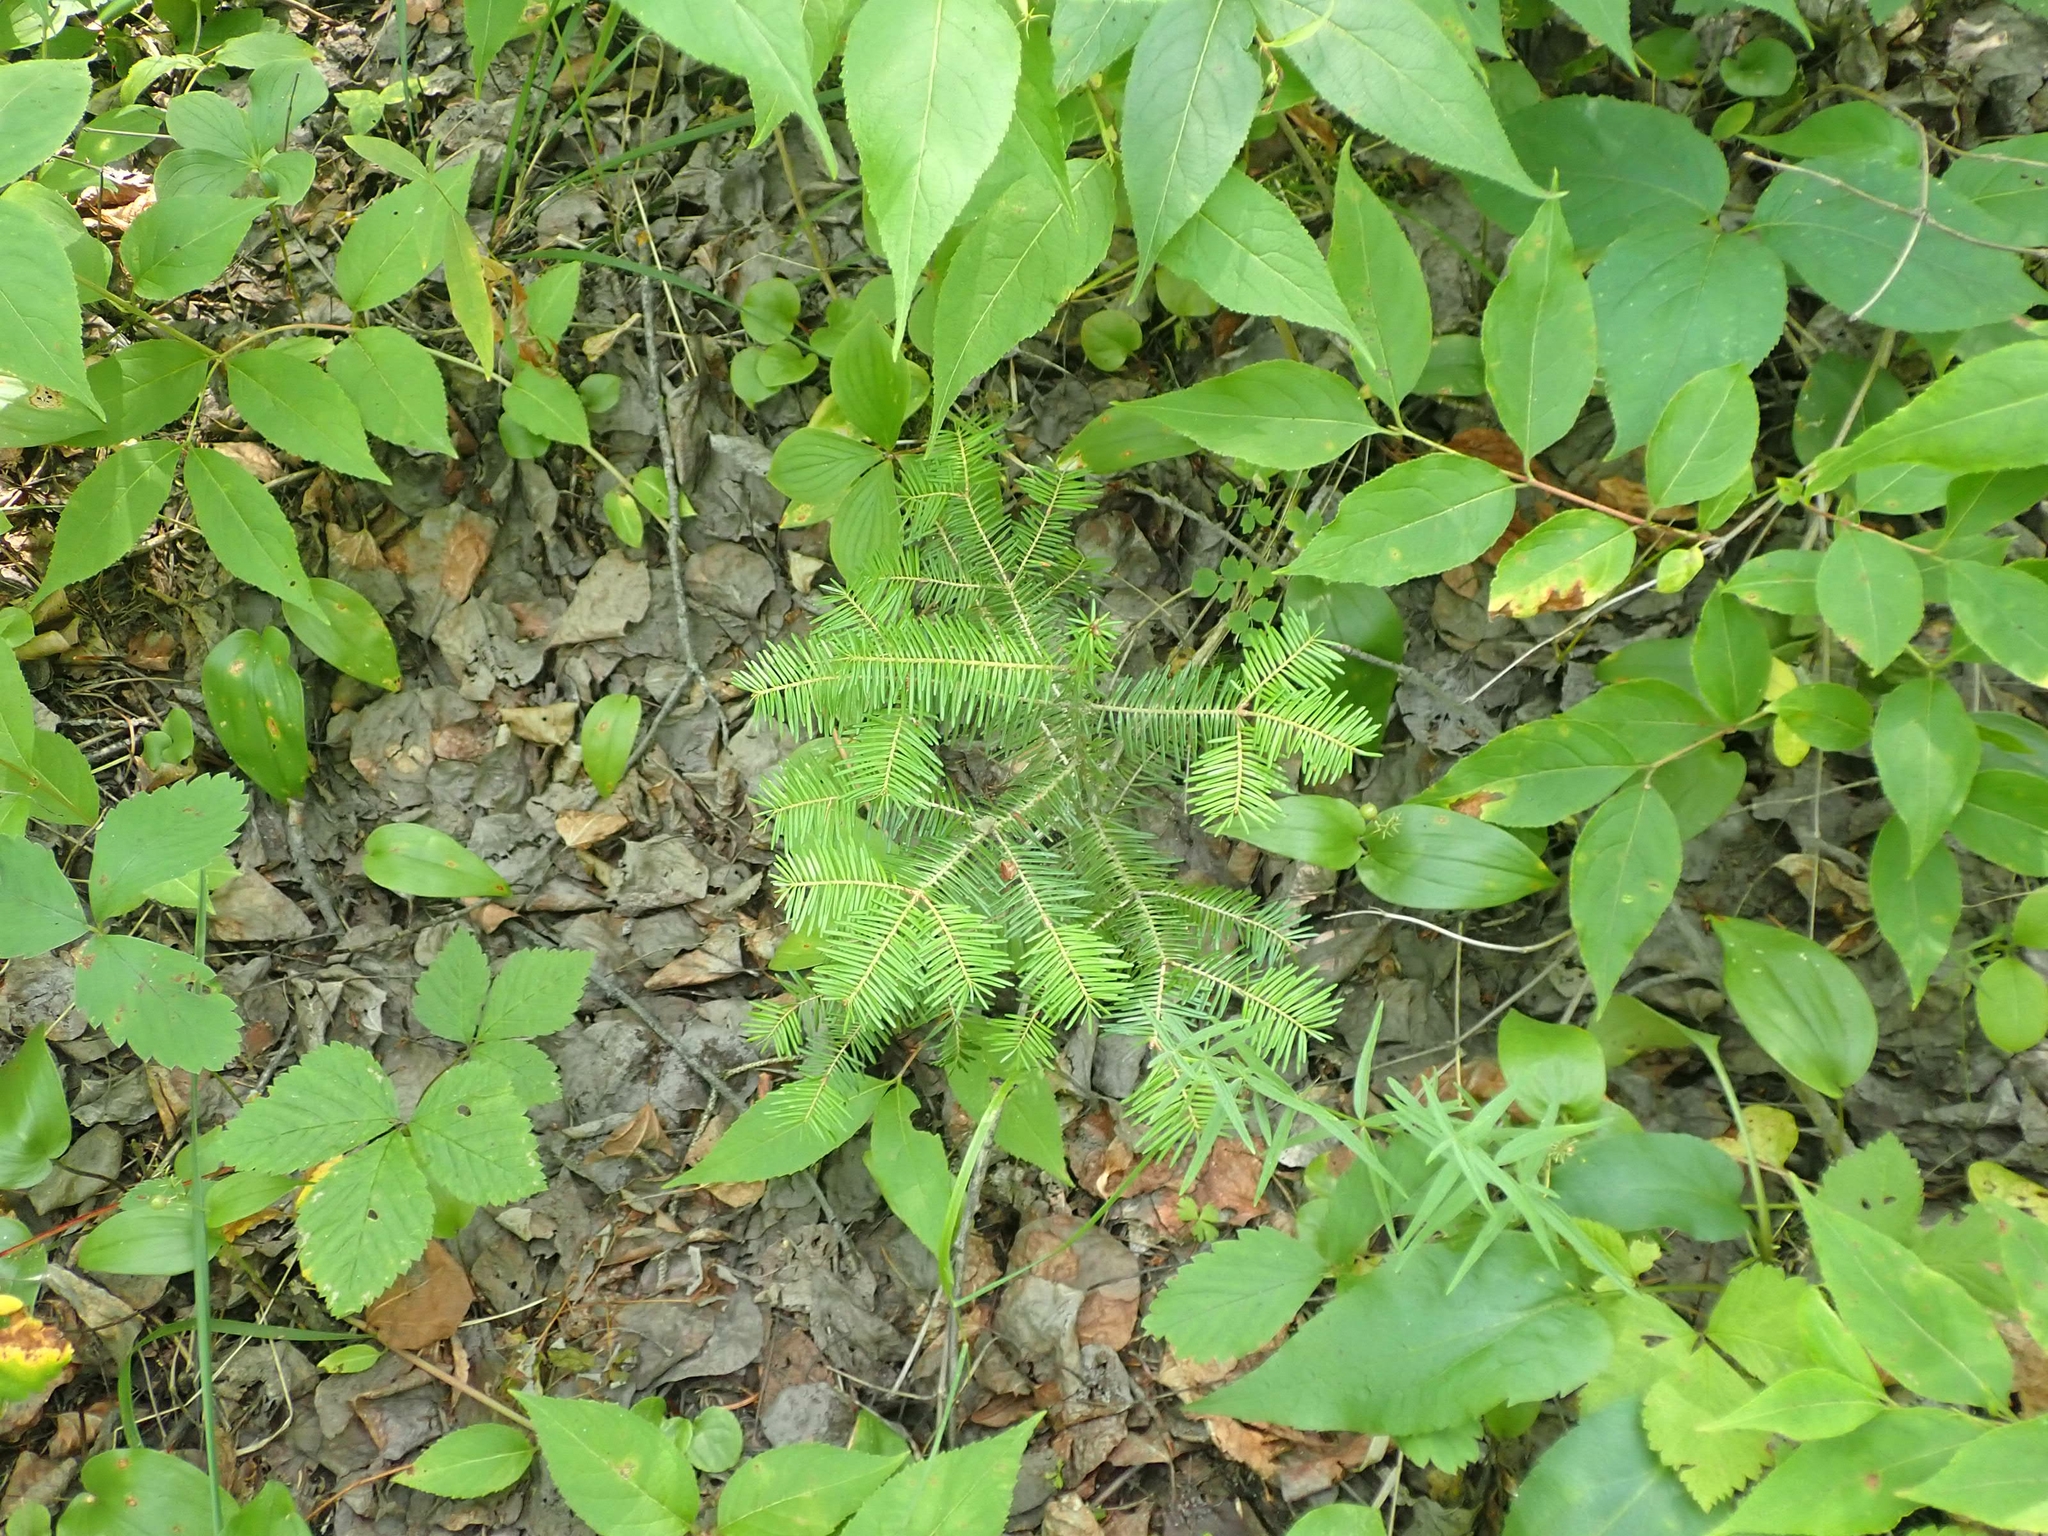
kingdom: Plantae
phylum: Tracheophyta
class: Pinopsida
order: Pinales
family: Pinaceae
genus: Abies
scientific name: Abies balsamea
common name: Balsam fir
